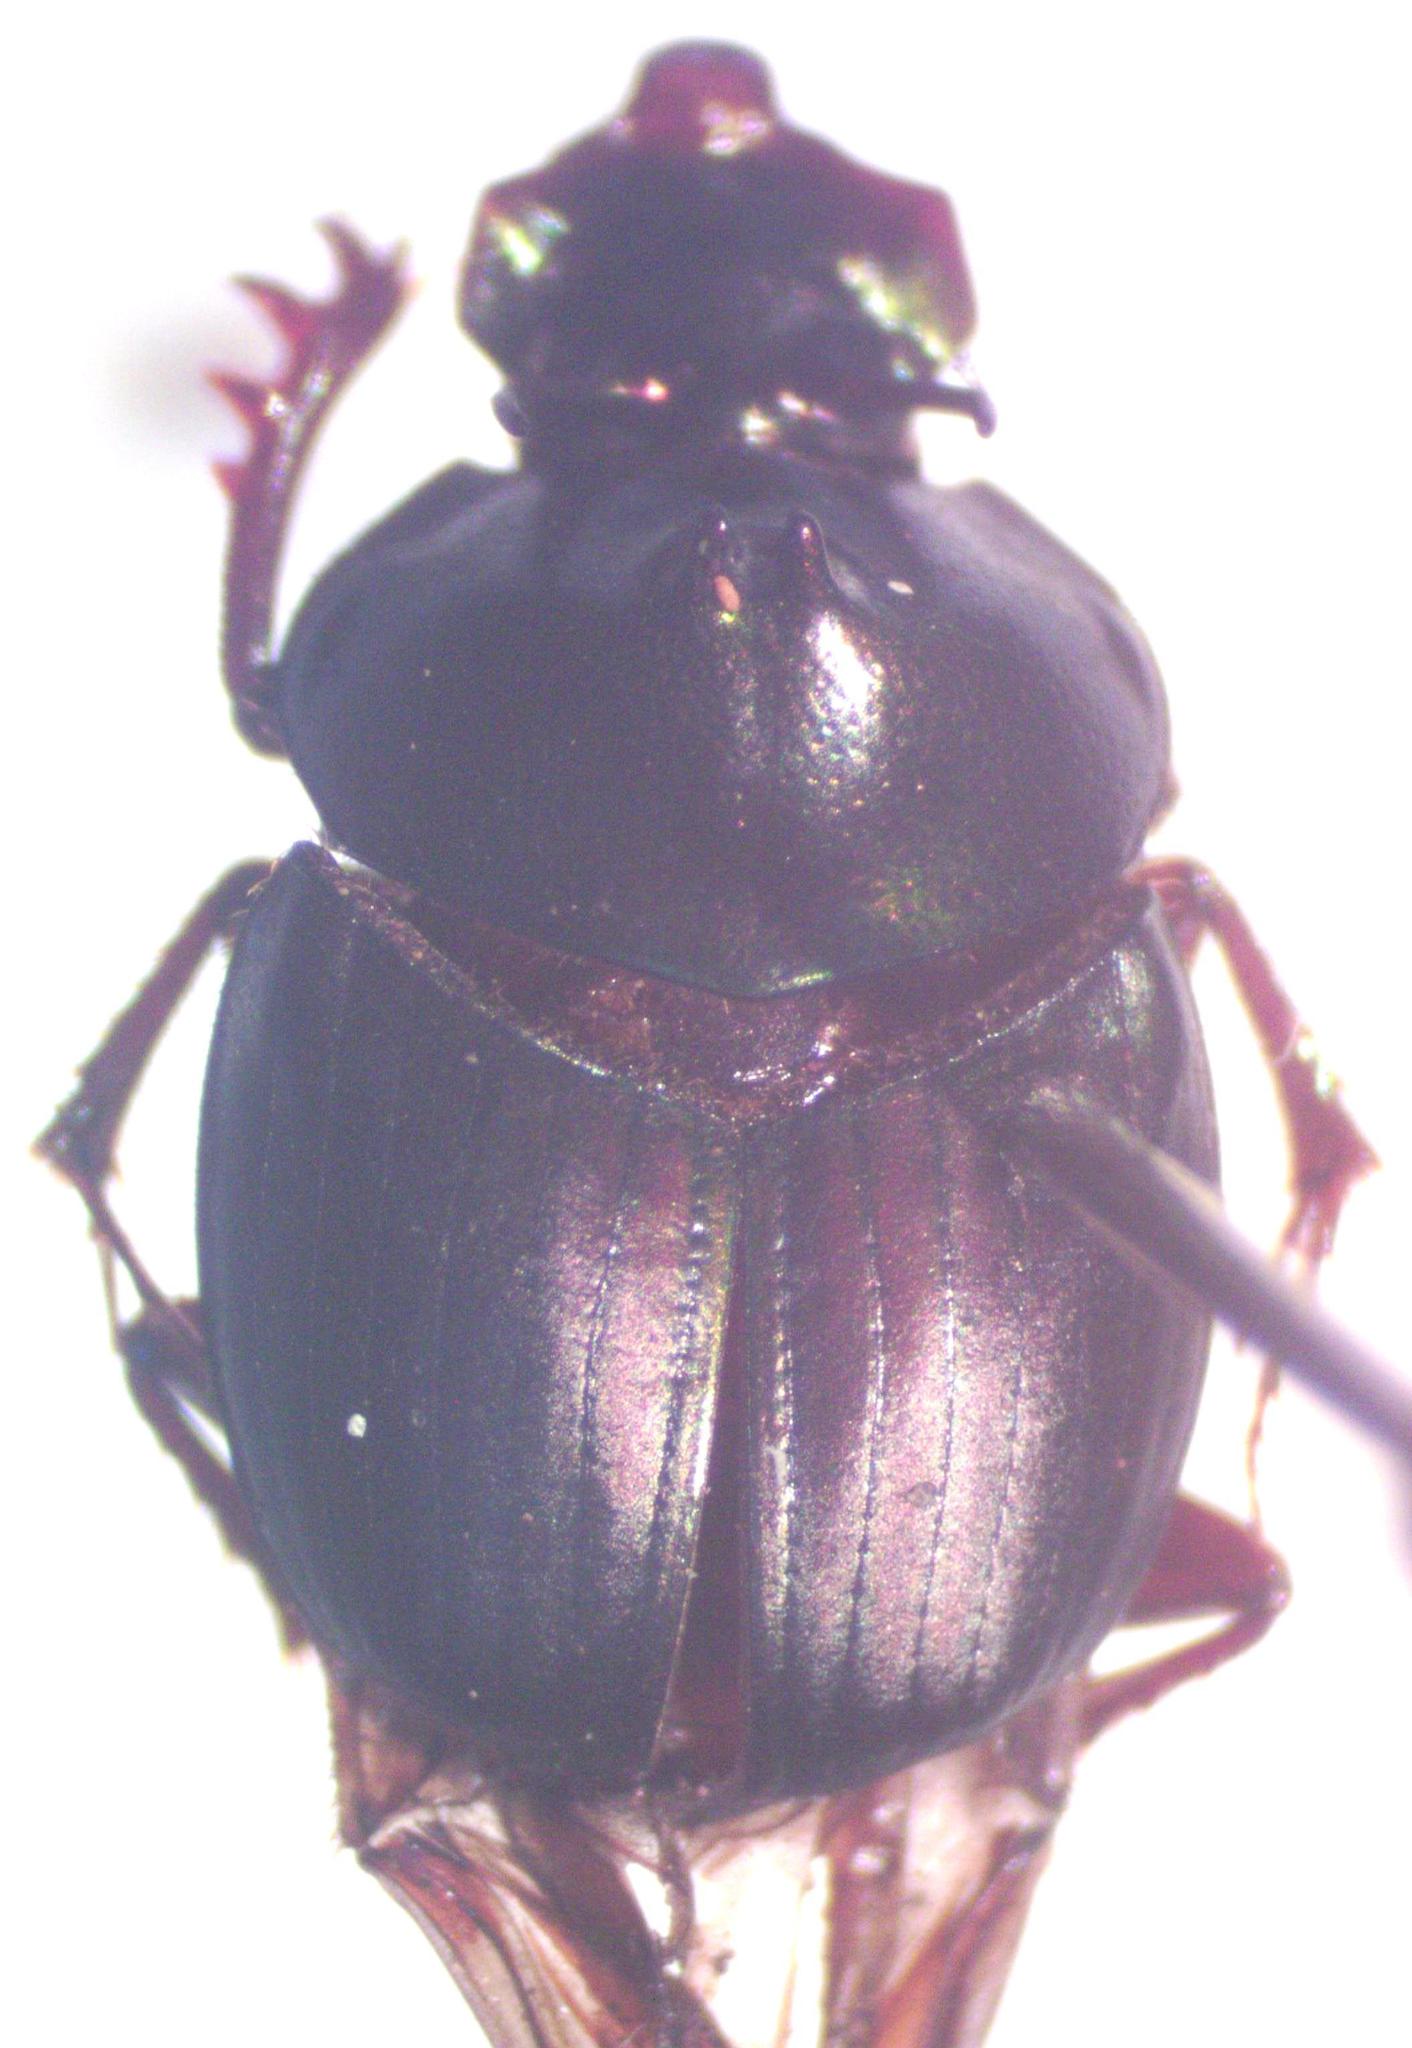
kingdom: Animalia
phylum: Arthropoda
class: Insecta
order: Coleoptera
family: Scarabaeidae
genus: Onthophagus
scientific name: Onthophagus viridivinosus
